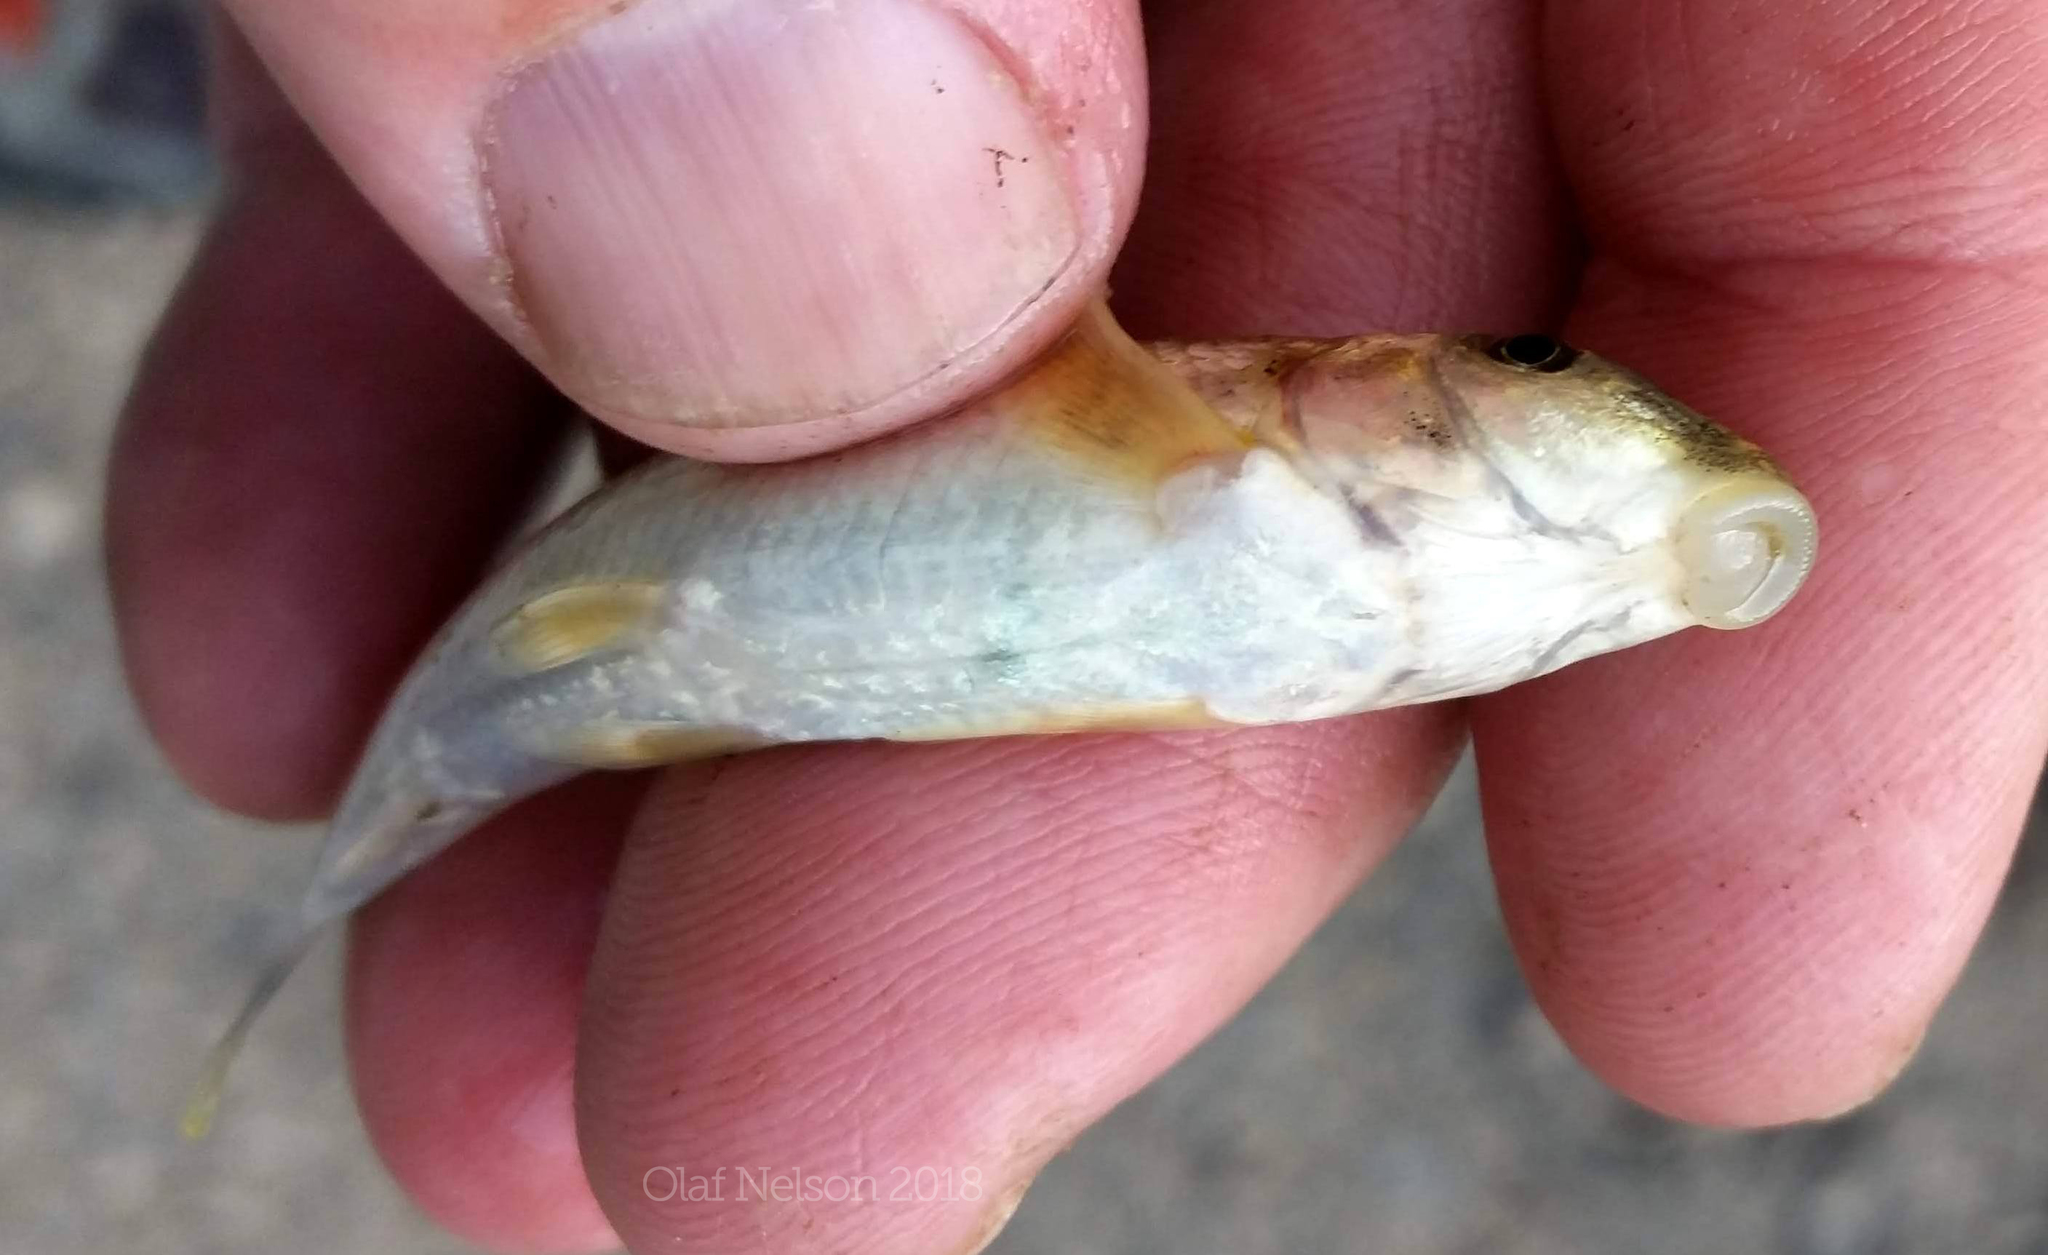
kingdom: Animalia
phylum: Chordata
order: Cypriniformes
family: Catostomidae
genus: Hypentelium
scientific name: Hypentelium nigricans
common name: Northern hog sucker
